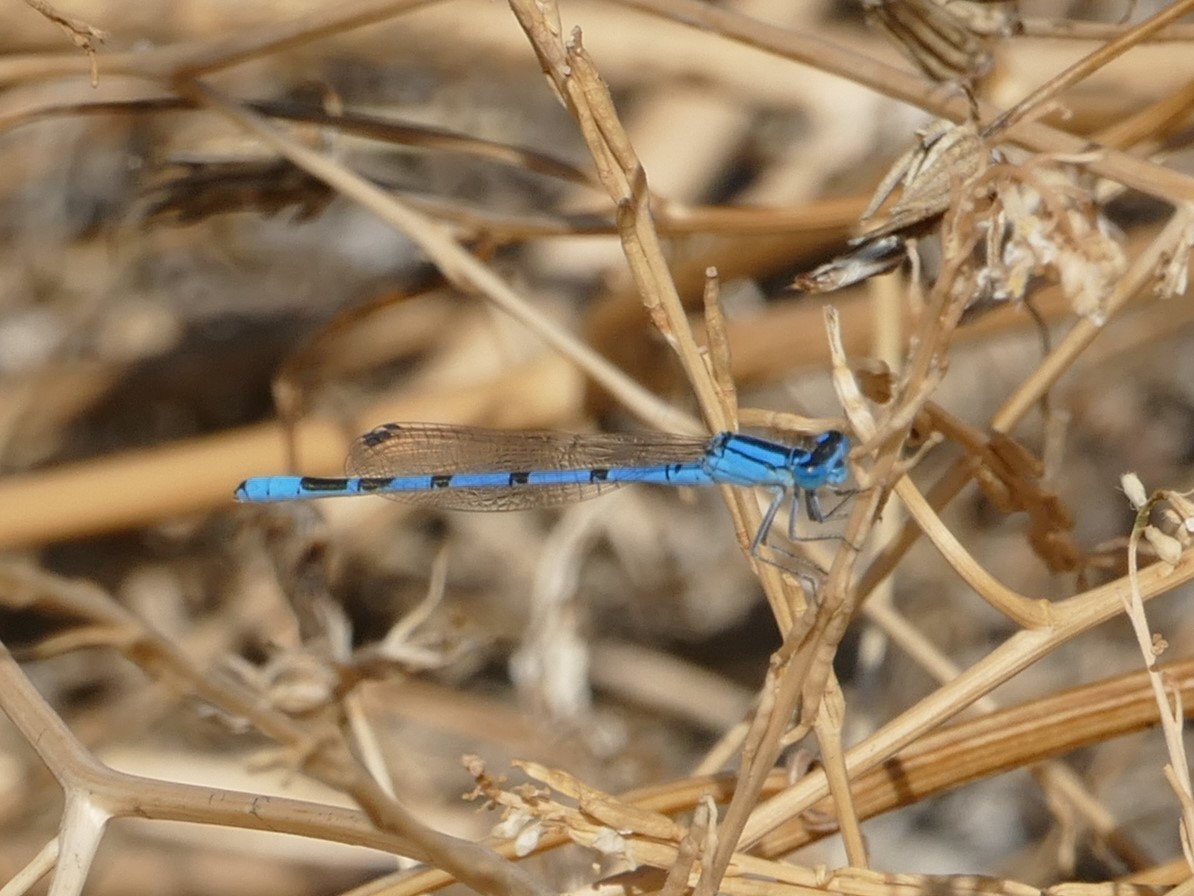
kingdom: Animalia
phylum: Arthropoda
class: Insecta
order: Odonata
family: Coenagrionidae
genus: Enallagma
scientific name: Enallagma cyathigerum
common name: Common blue damselfly
